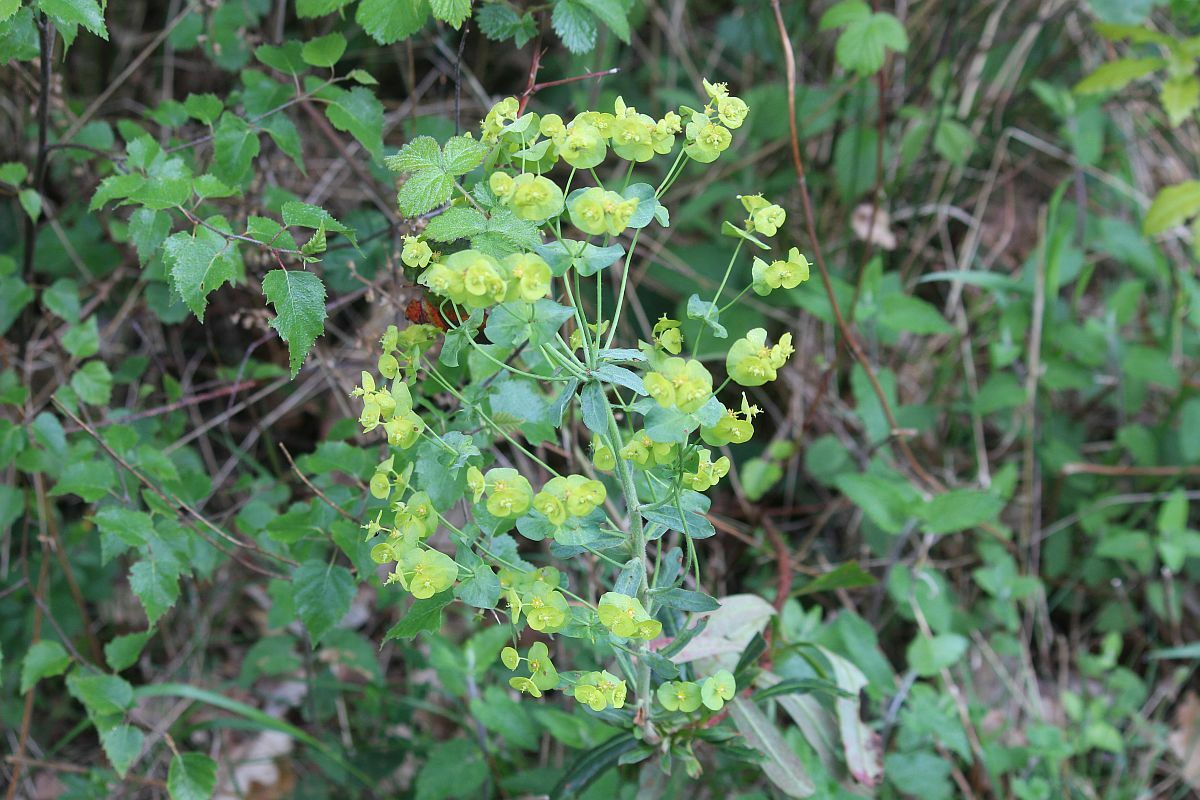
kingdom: Plantae
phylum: Tracheophyta
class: Magnoliopsida
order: Malpighiales
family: Euphorbiaceae
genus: Euphorbia
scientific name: Euphorbia amygdaloides
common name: Wood spurge
